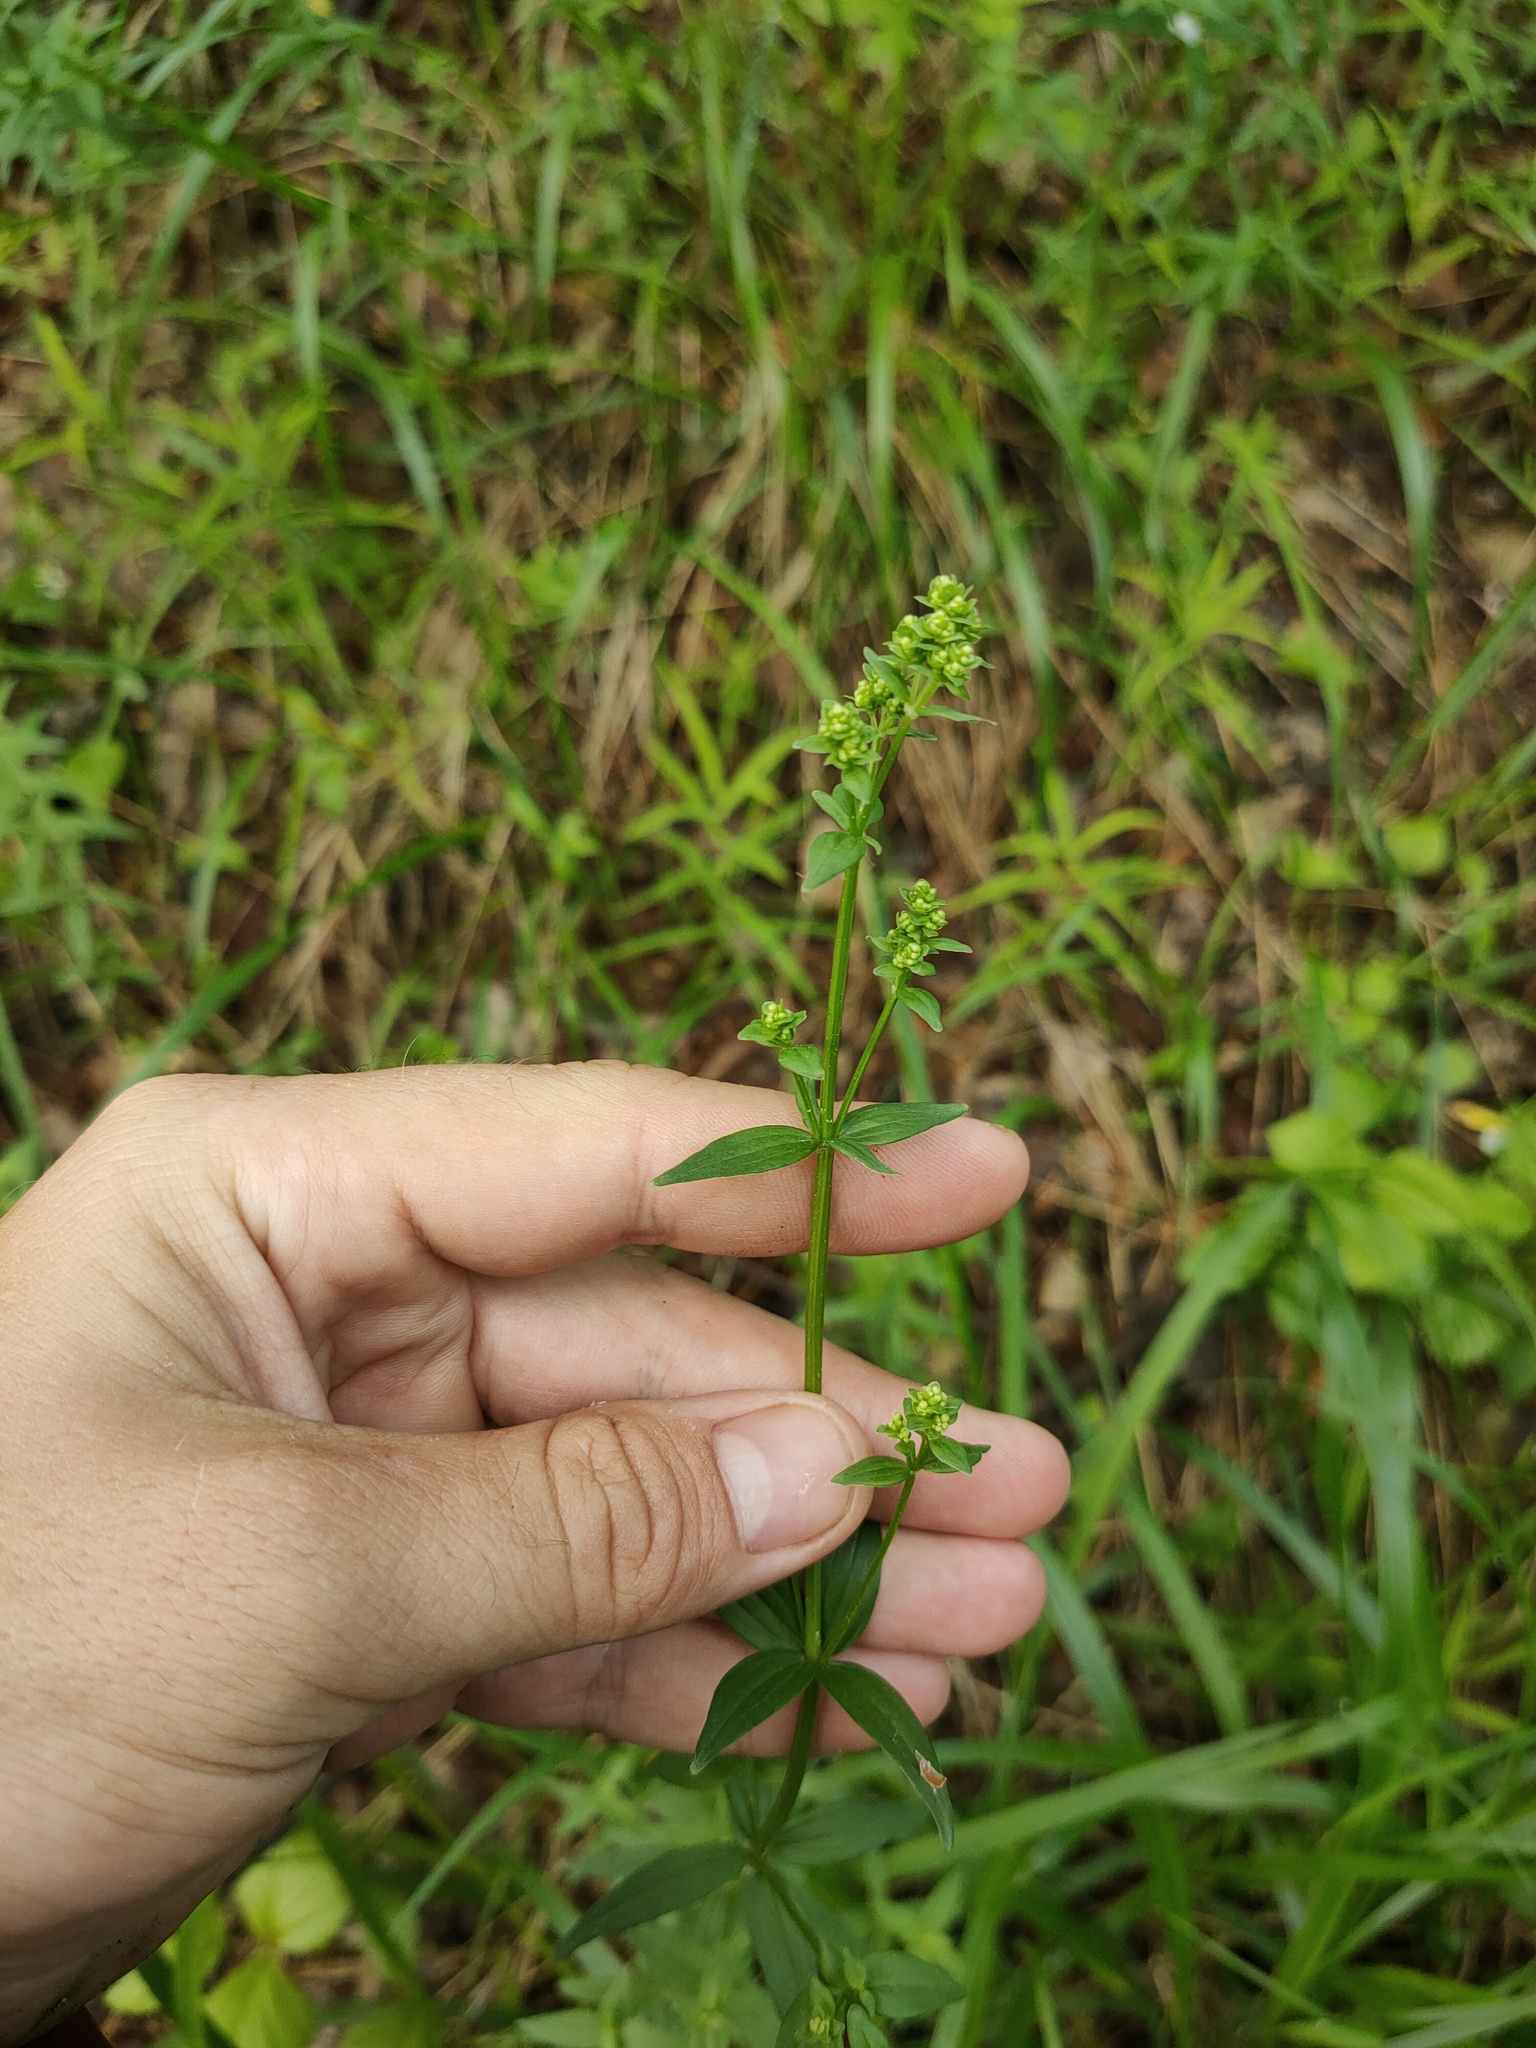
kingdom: Plantae
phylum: Tracheophyta
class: Magnoliopsida
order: Gentianales
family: Rubiaceae
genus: Galium
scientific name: Galium boreale
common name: Northern bedstraw
